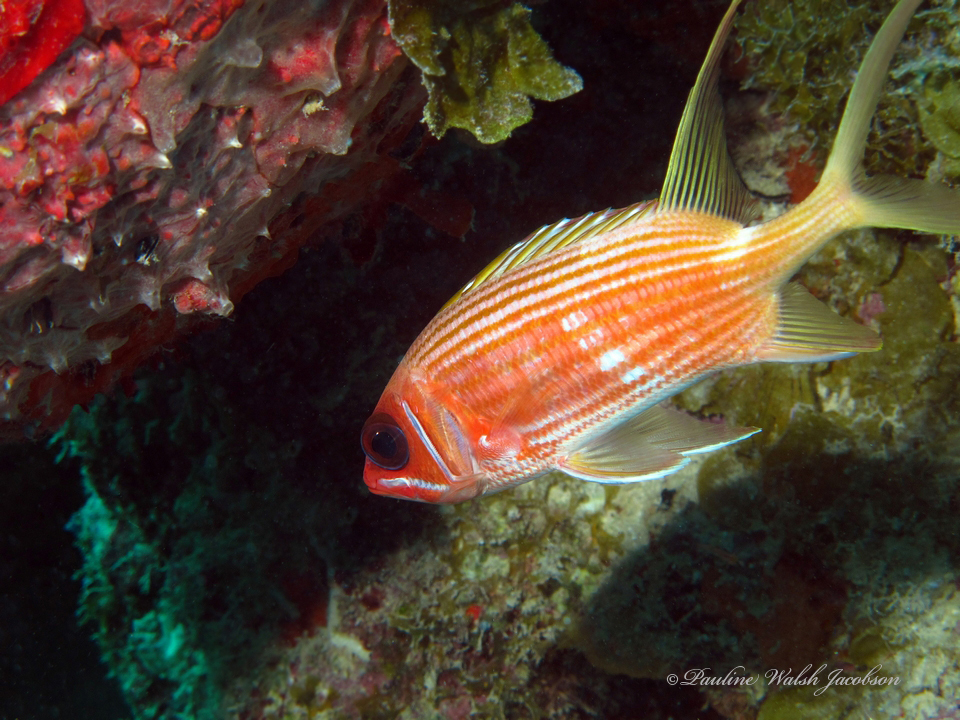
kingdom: Animalia
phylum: Chordata
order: Beryciformes
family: Holocentridae
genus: Holocentrus
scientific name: Holocentrus rufus
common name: Longspine squirrelfish
